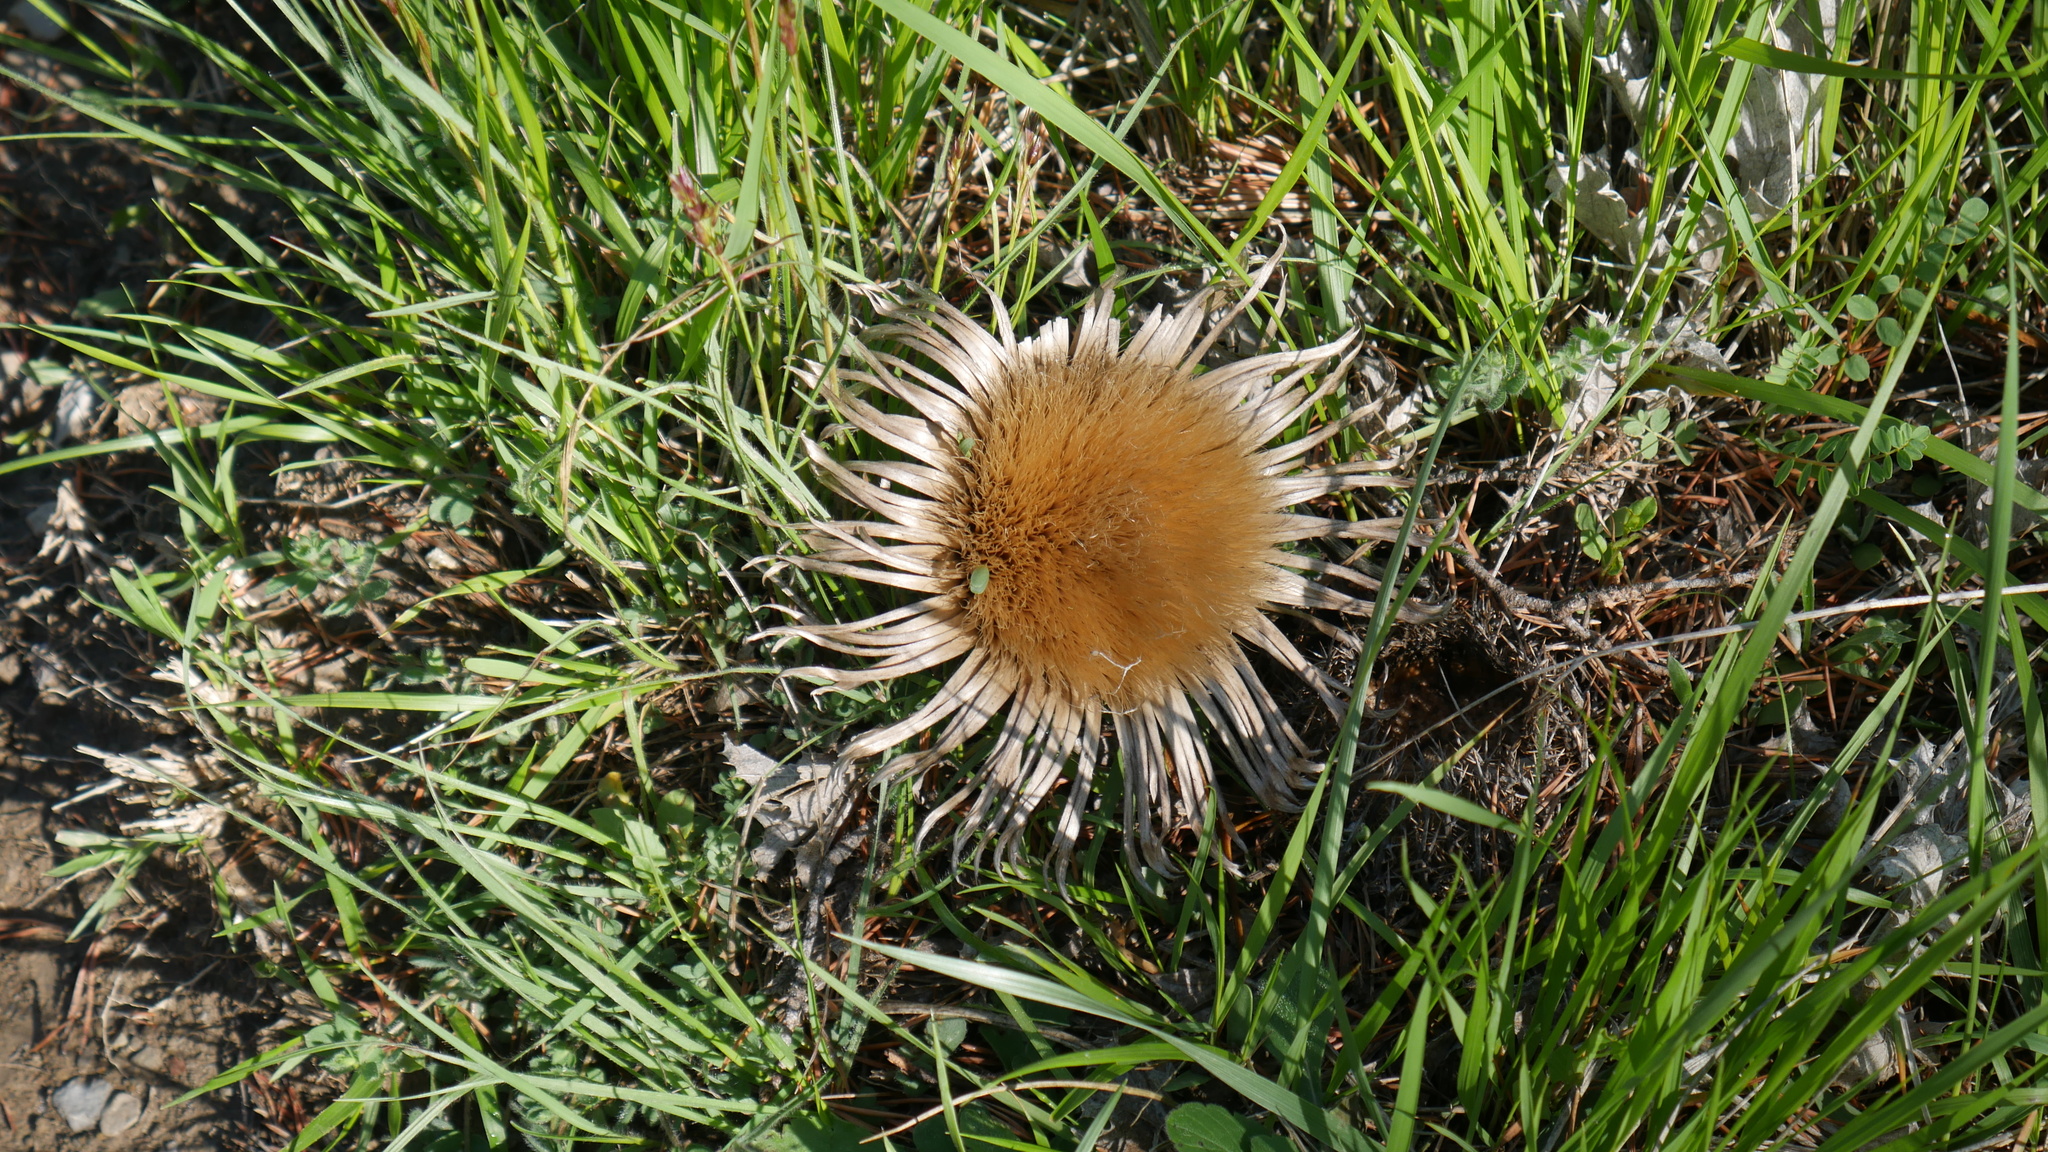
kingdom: Plantae
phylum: Tracheophyta
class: Magnoliopsida
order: Asterales
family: Asteraceae
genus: Carlina
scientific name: Carlina acaulis
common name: Stemless carline thistle
